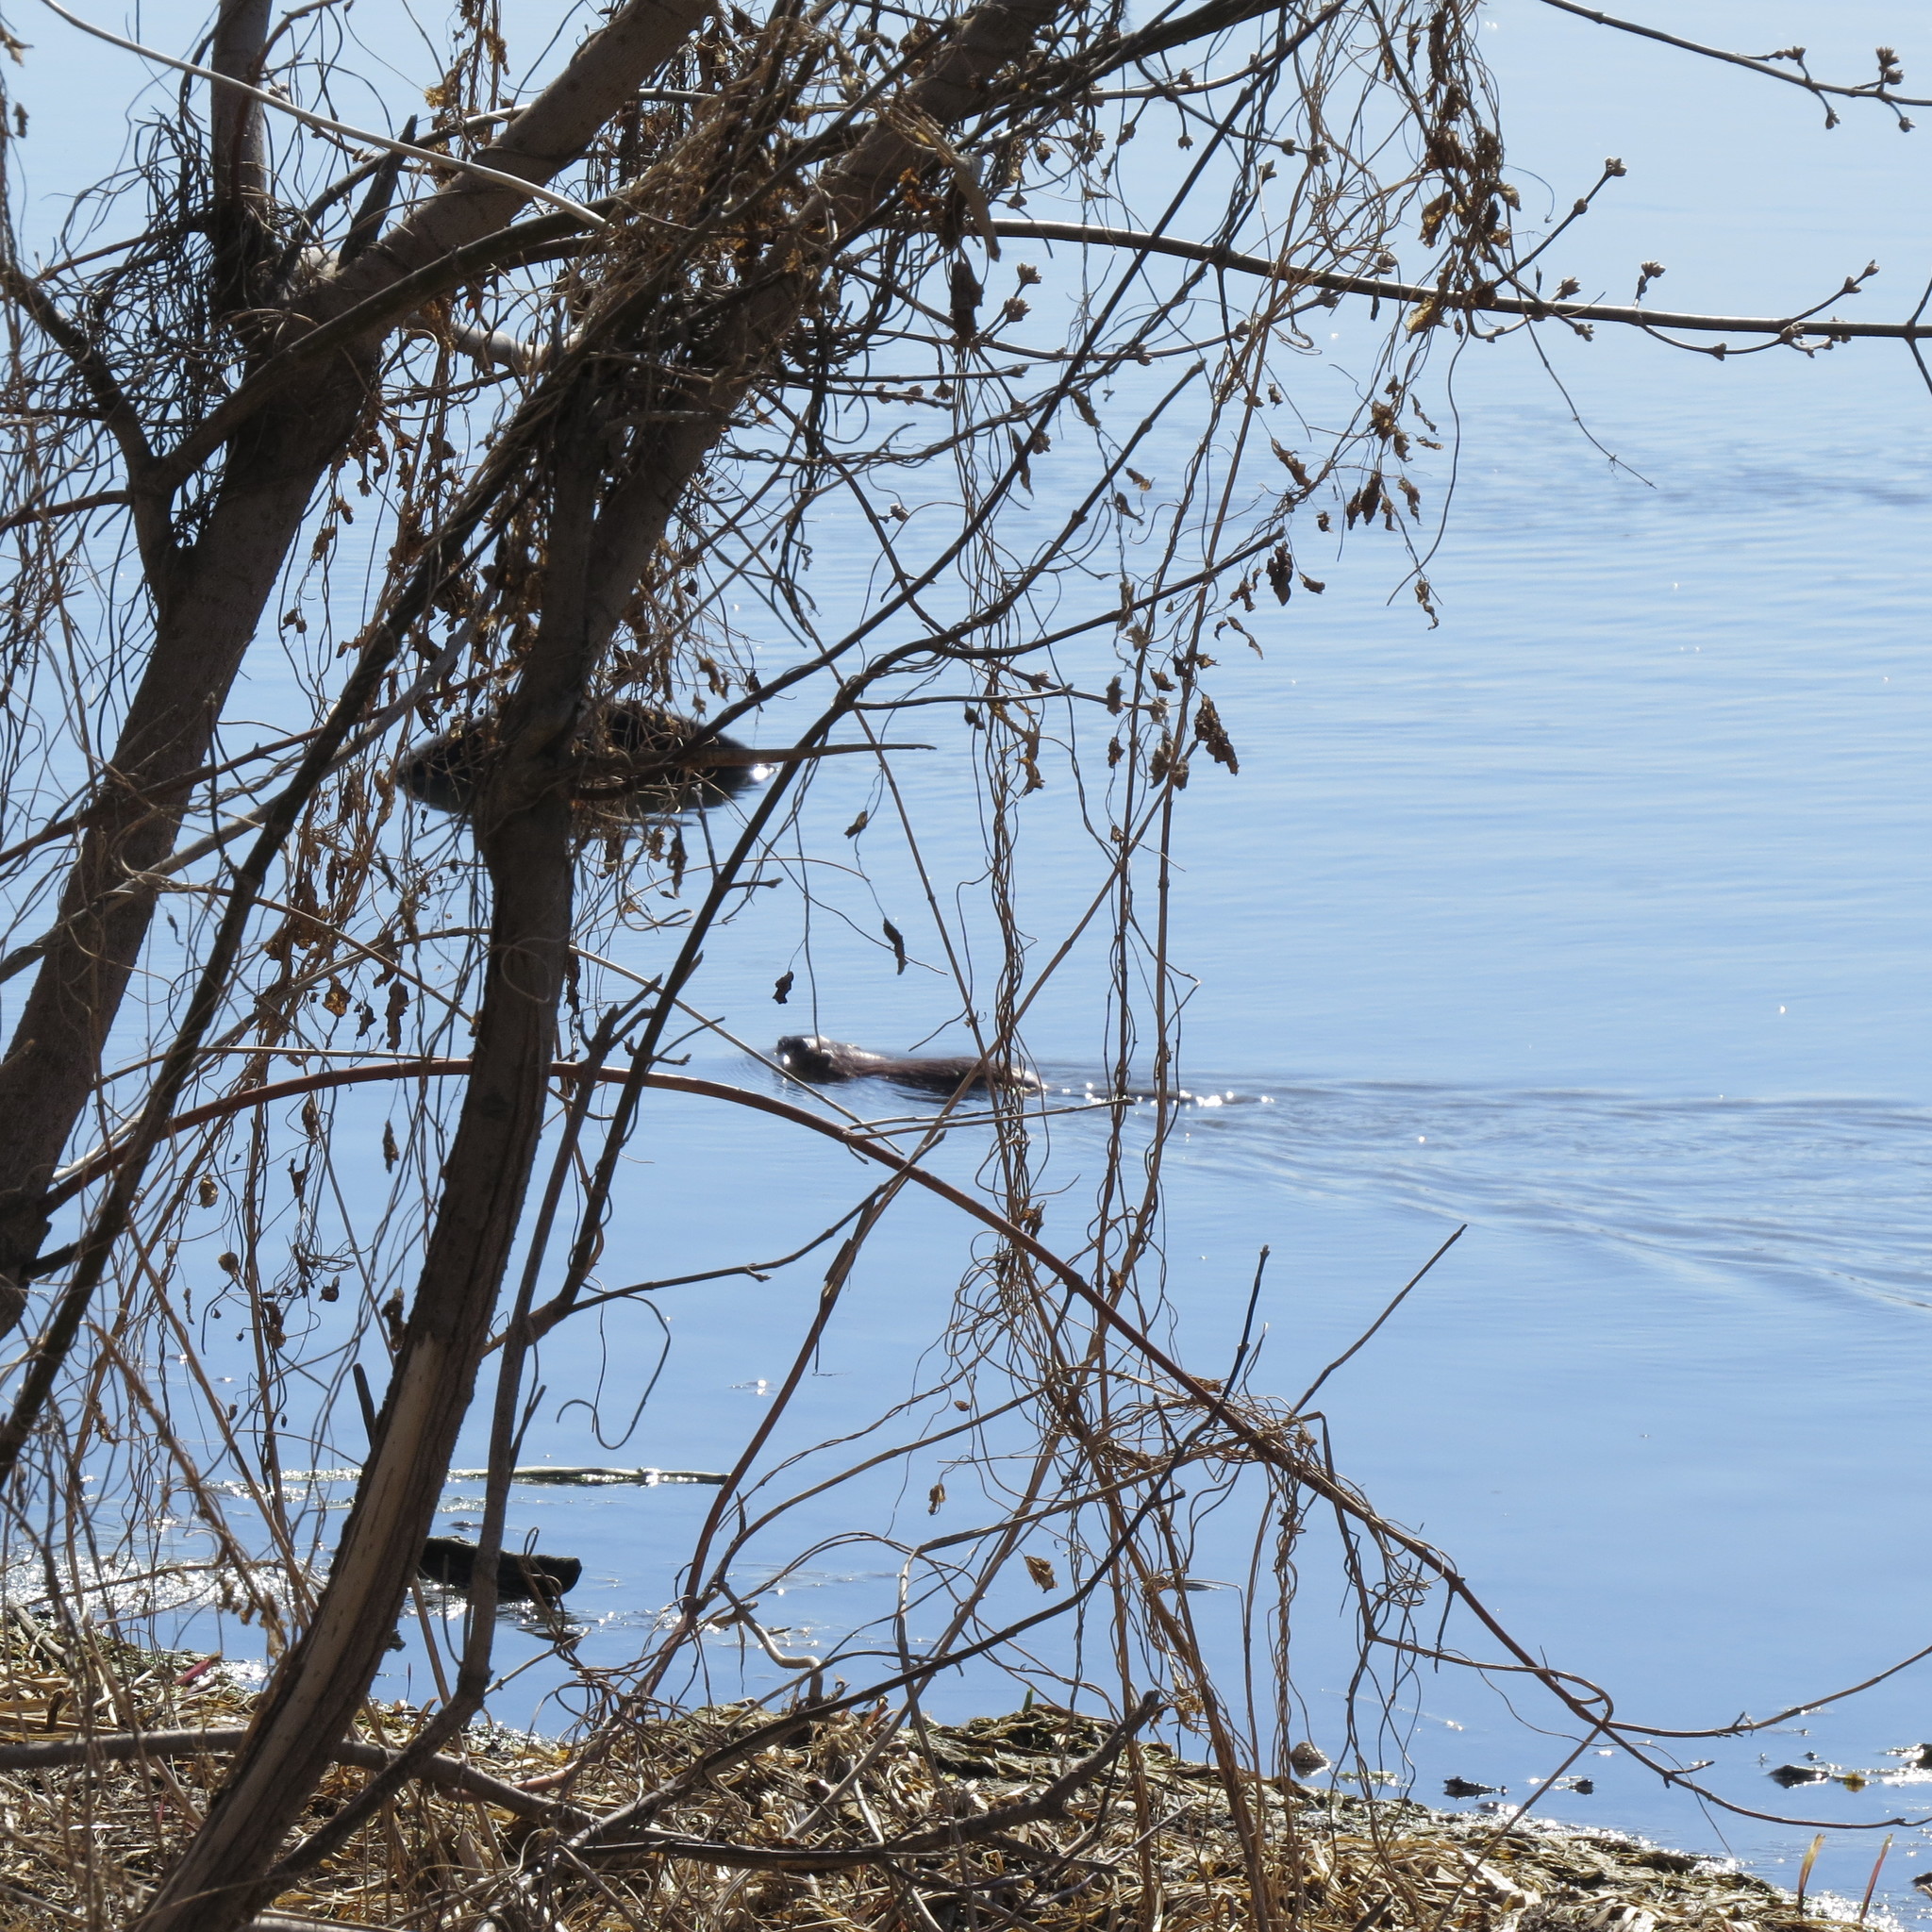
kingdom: Animalia
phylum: Chordata
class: Mammalia
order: Rodentia
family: Cricetidae
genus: Ondatra
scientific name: Ondatra zibethicus
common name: Muskrat
